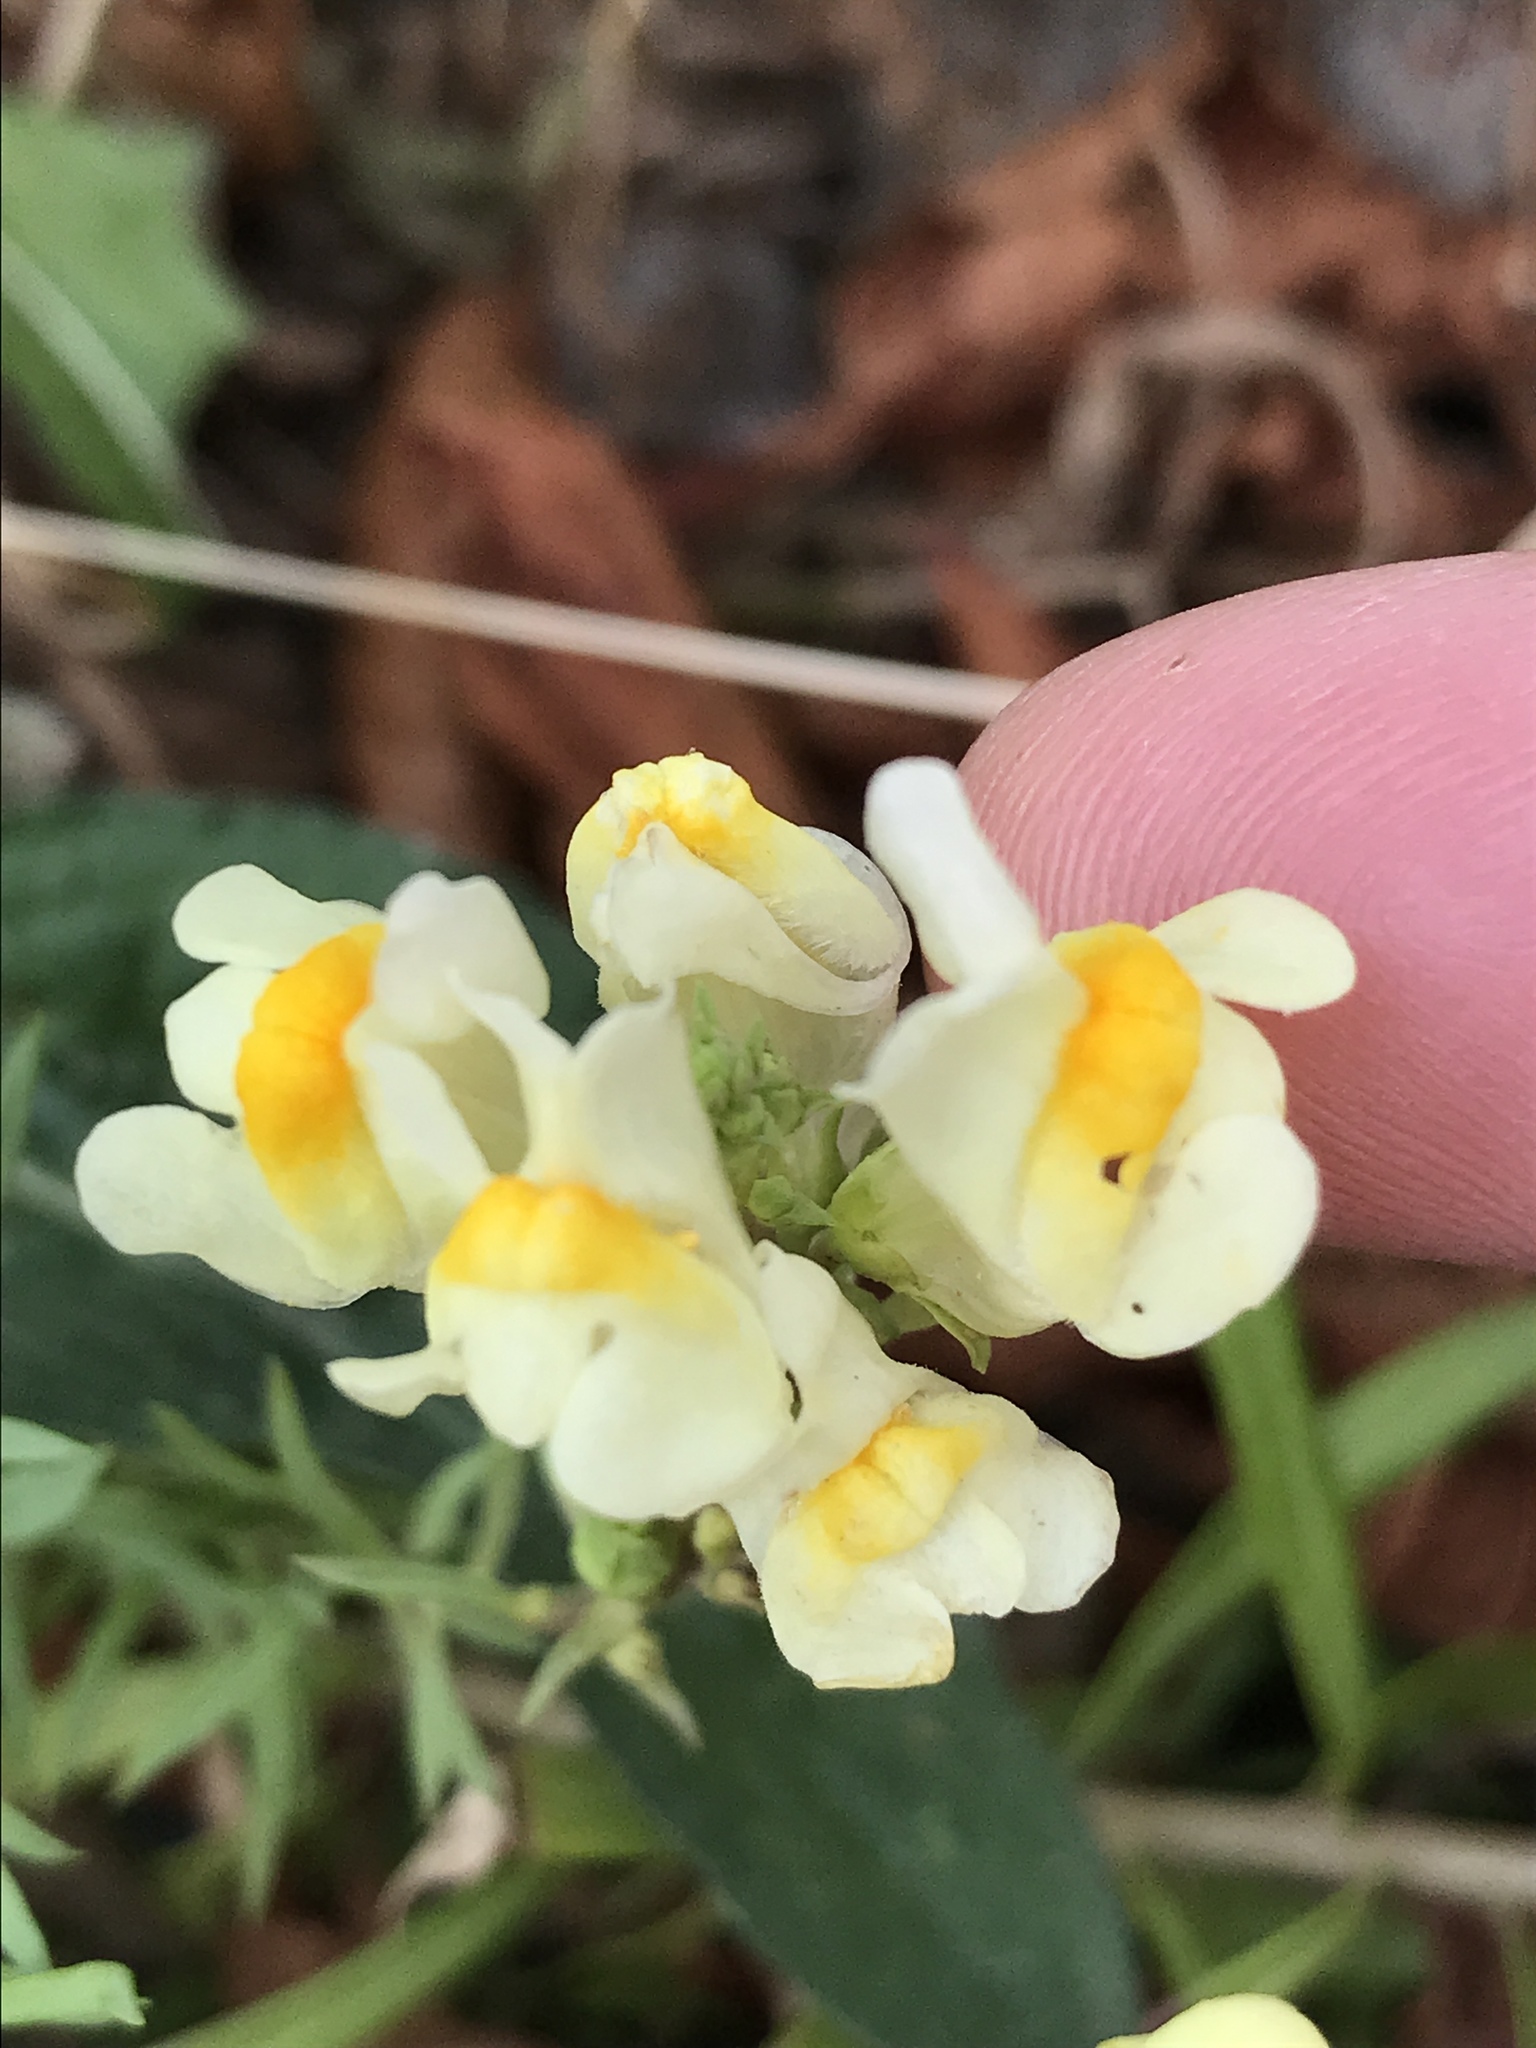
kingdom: Plantae
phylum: Tracheophyta
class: Magnoliopsida
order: Lamiales
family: Plantaginaceae
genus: Linaria
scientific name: Linaria vulgaris
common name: Butter and eggs
